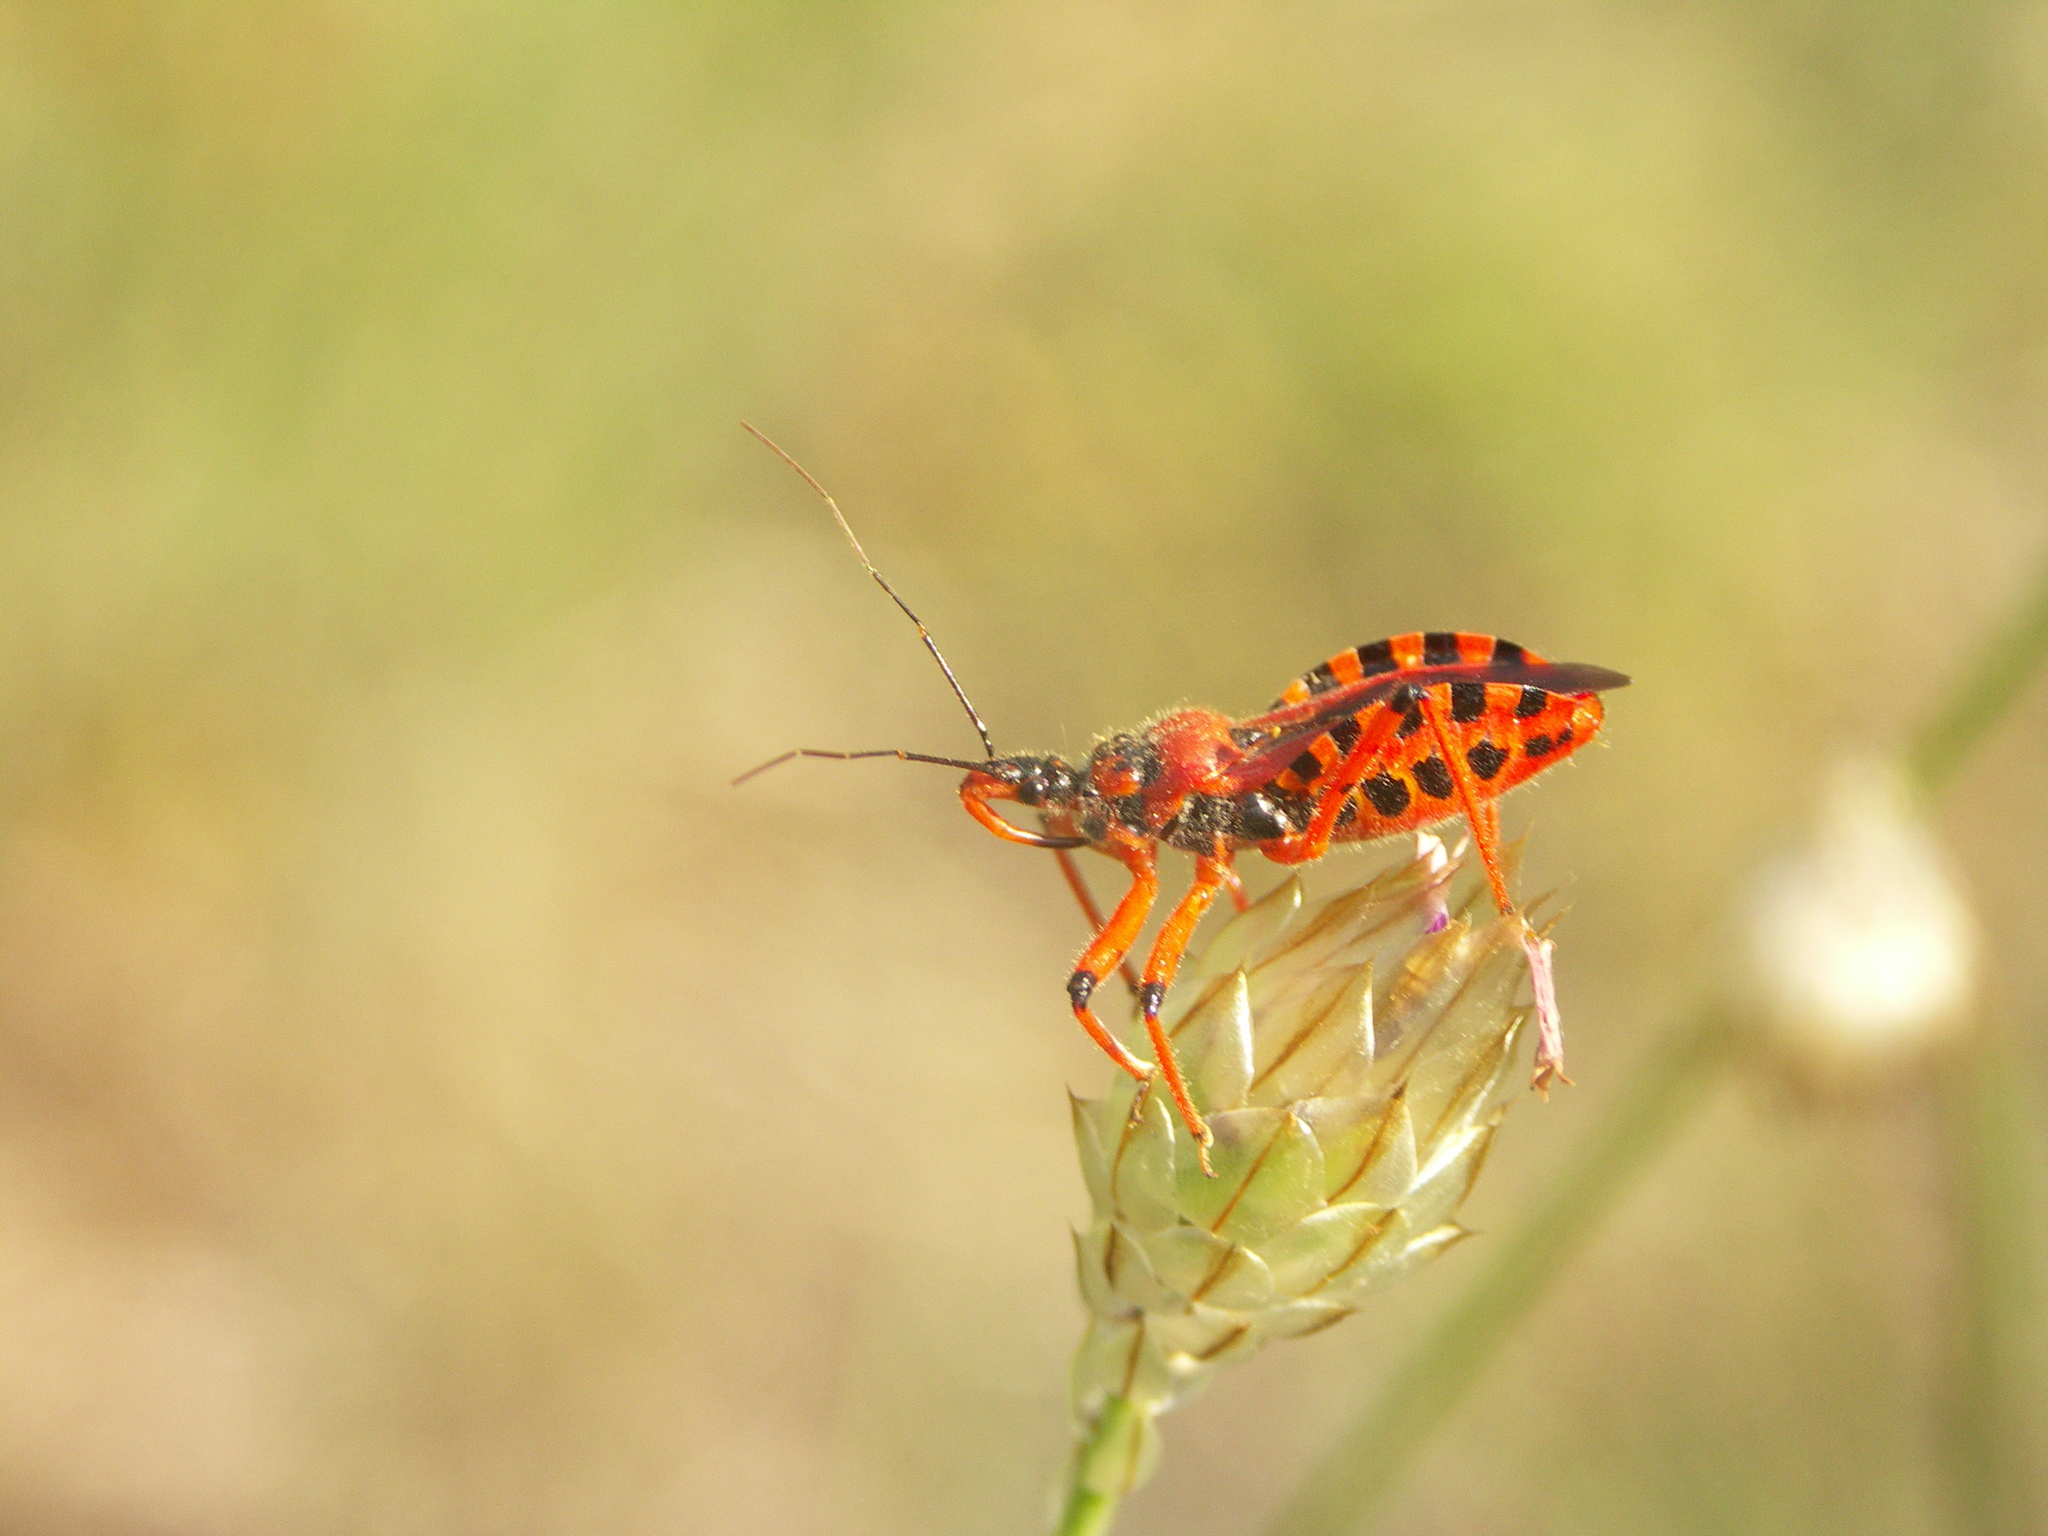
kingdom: Animalia
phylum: Arthropoda
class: Insecta
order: Hemiptera
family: Reduviidae
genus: Rhynocoris
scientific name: Rhynocoris
